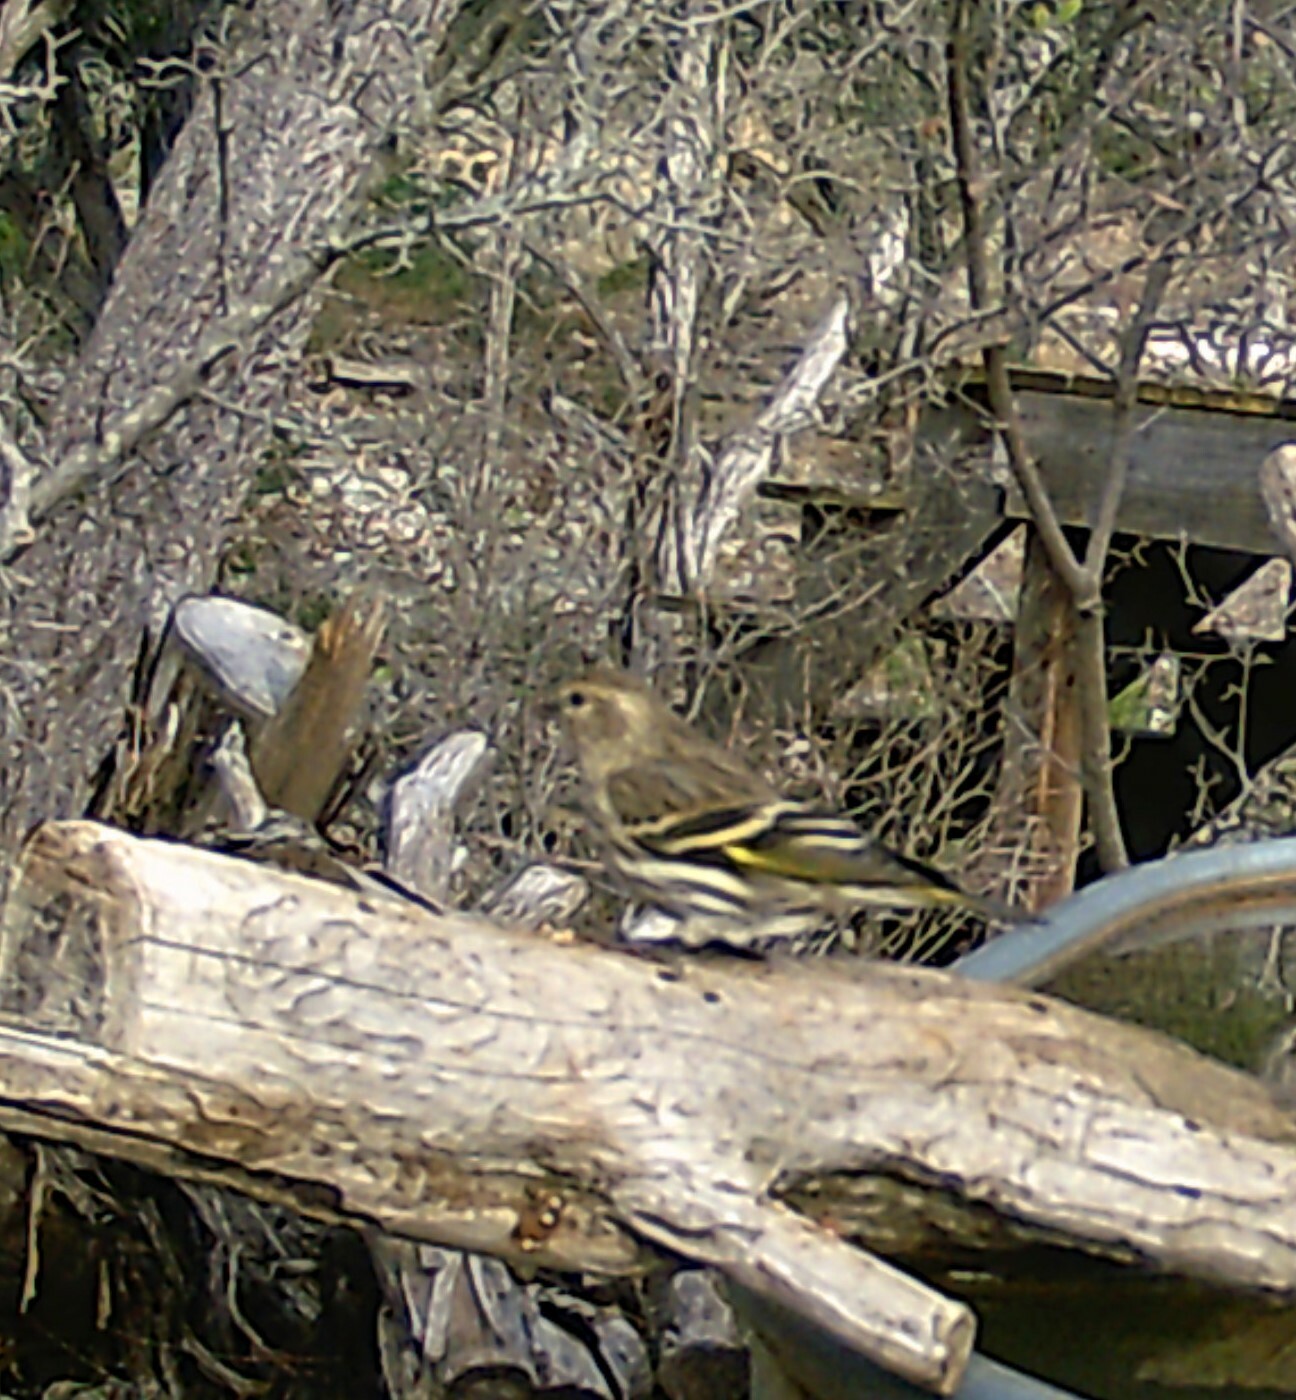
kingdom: Animalia
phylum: Chordata
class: Aves
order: Passeriformes
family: Fringillidae
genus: Spinus
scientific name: Spinus pinus
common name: Pine siskin
